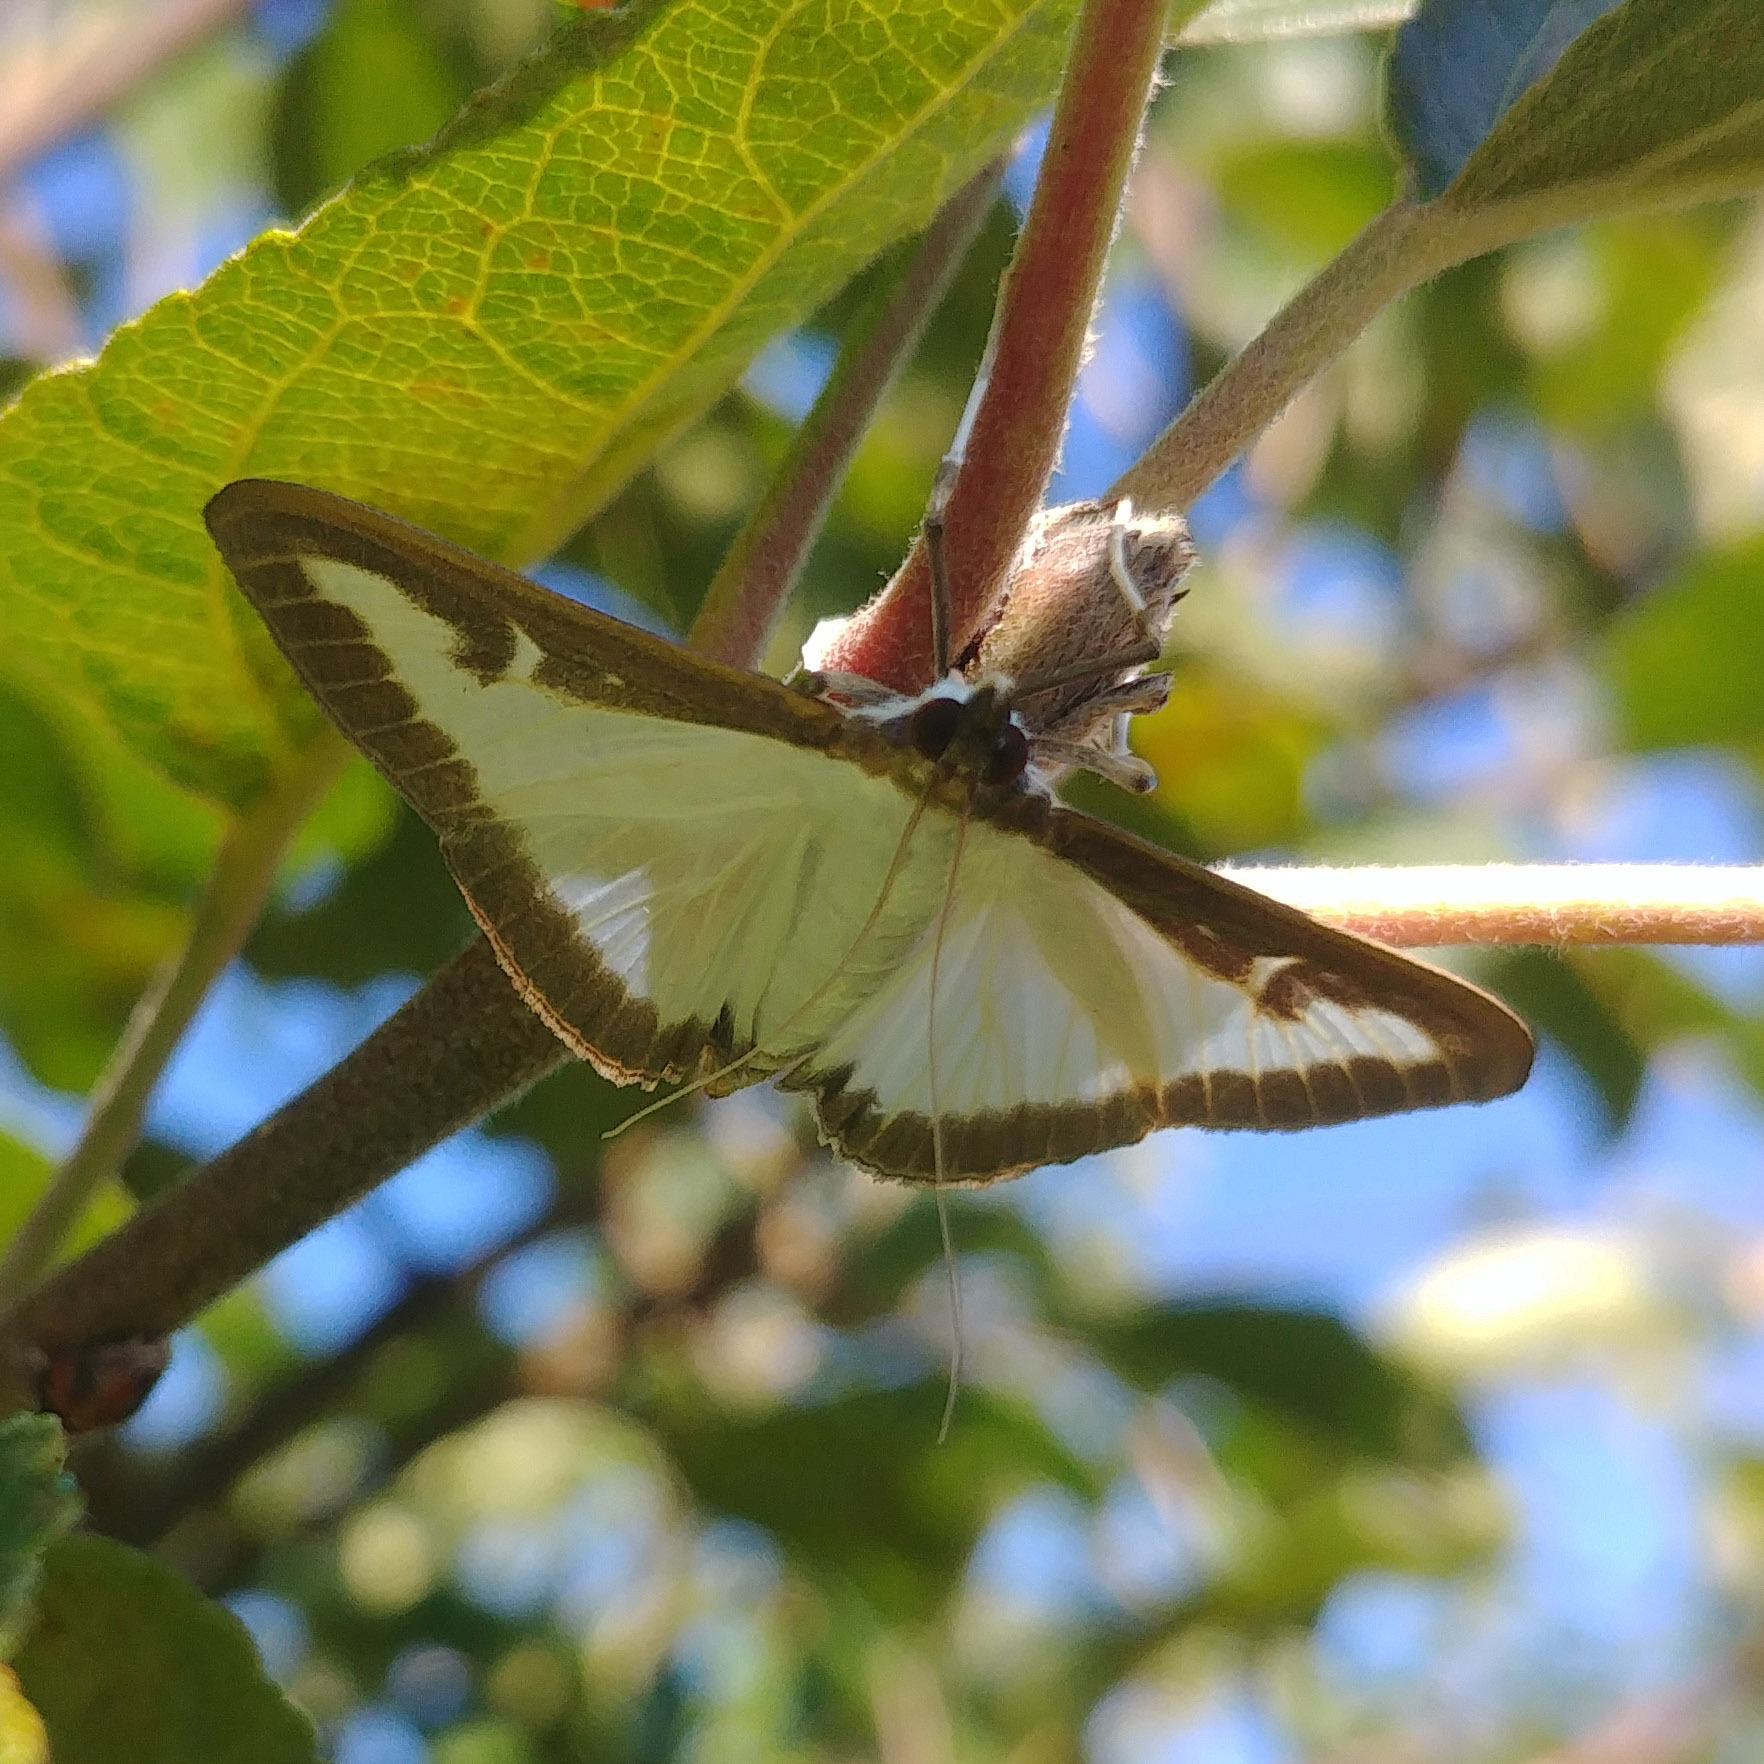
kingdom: Animalia
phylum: Arthropoda
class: Insecta
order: Lepidoptera
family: Crambidae
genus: Cydalima
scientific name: Cydalima perspectalis
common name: Box tree moth
